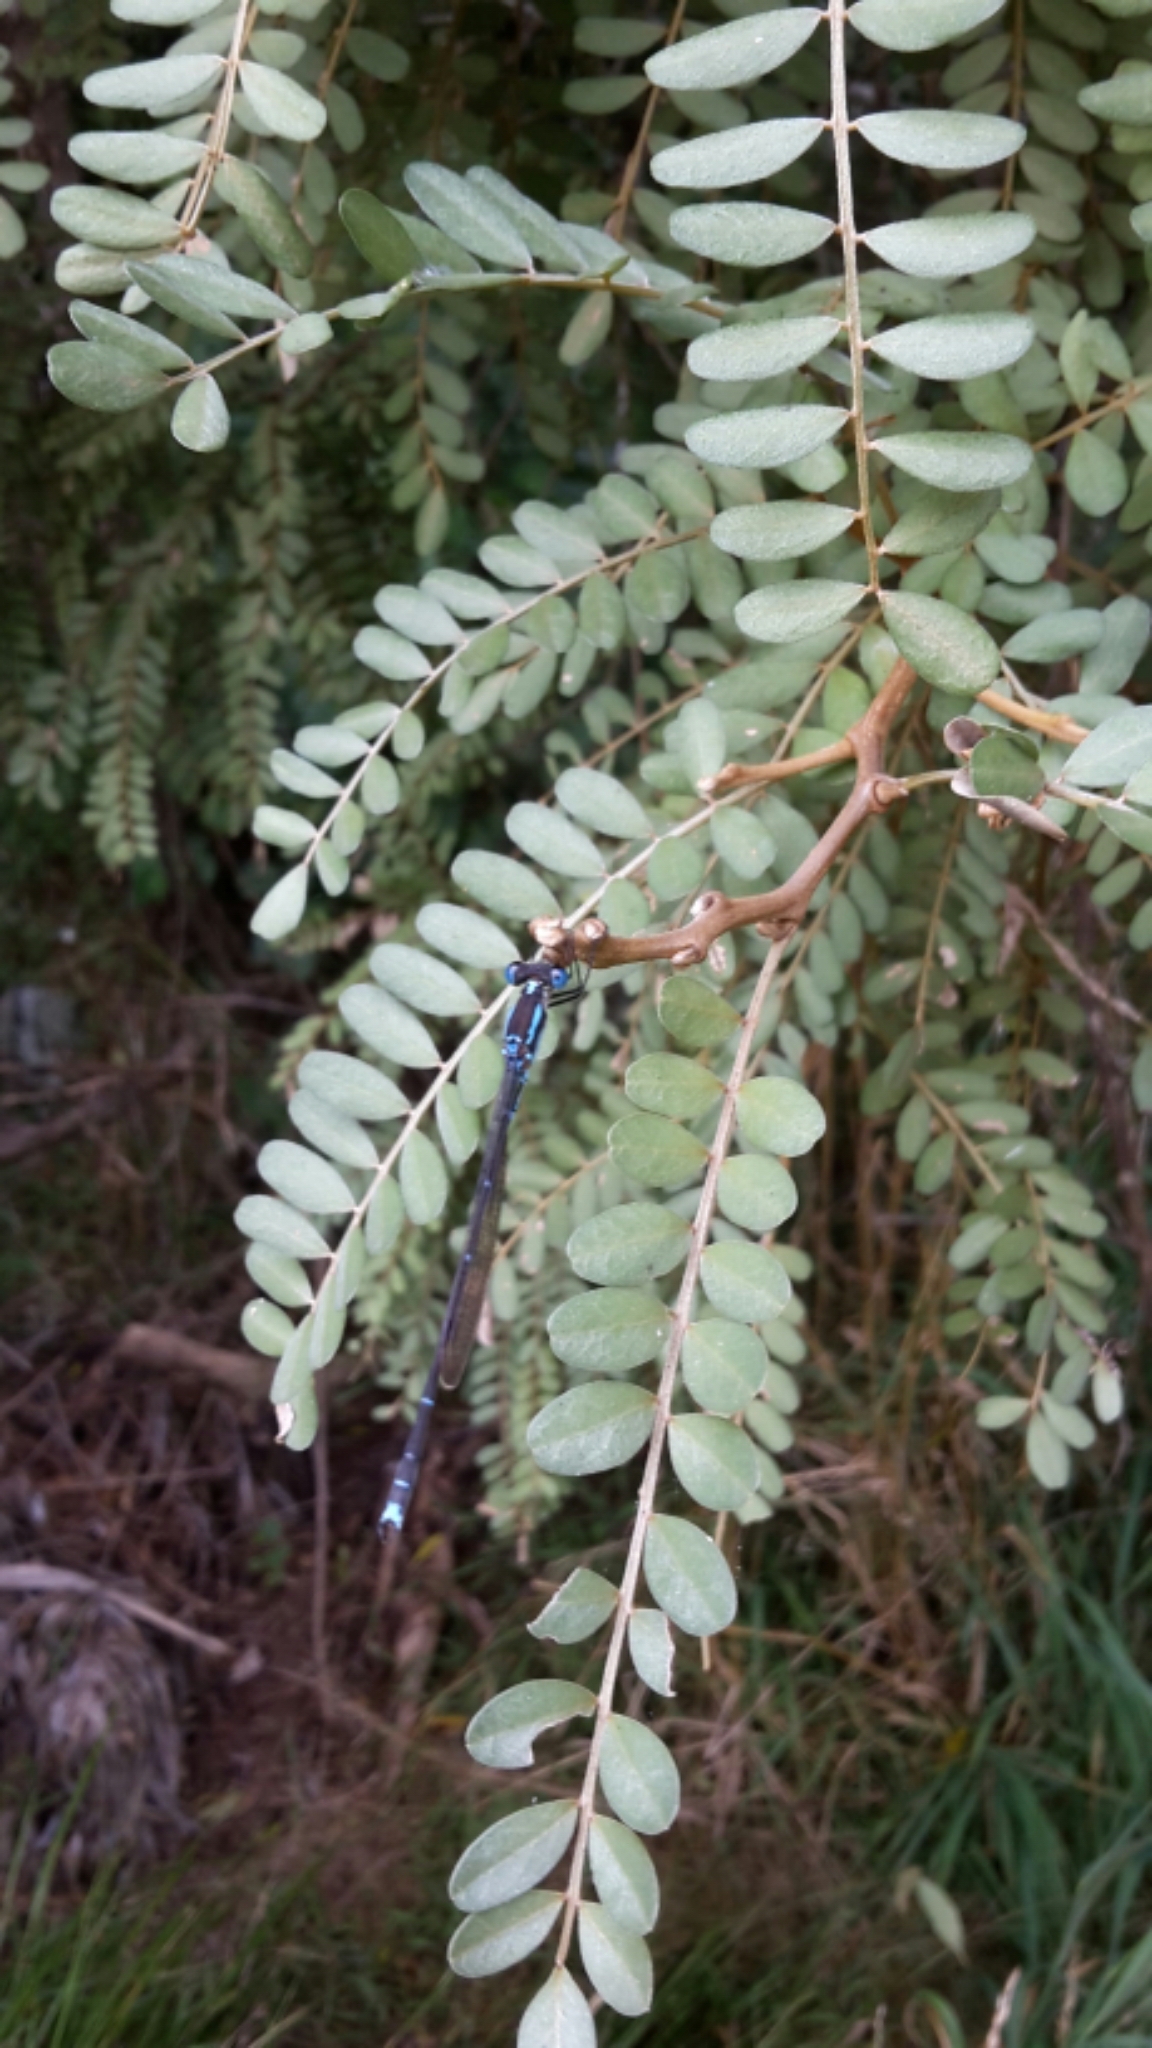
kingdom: Animalia
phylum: Arthropoda
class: Insecta
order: Odonata
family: Lestidae
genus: Austrolestes
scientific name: Austrolestes colensonis
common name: Blue damselfly
